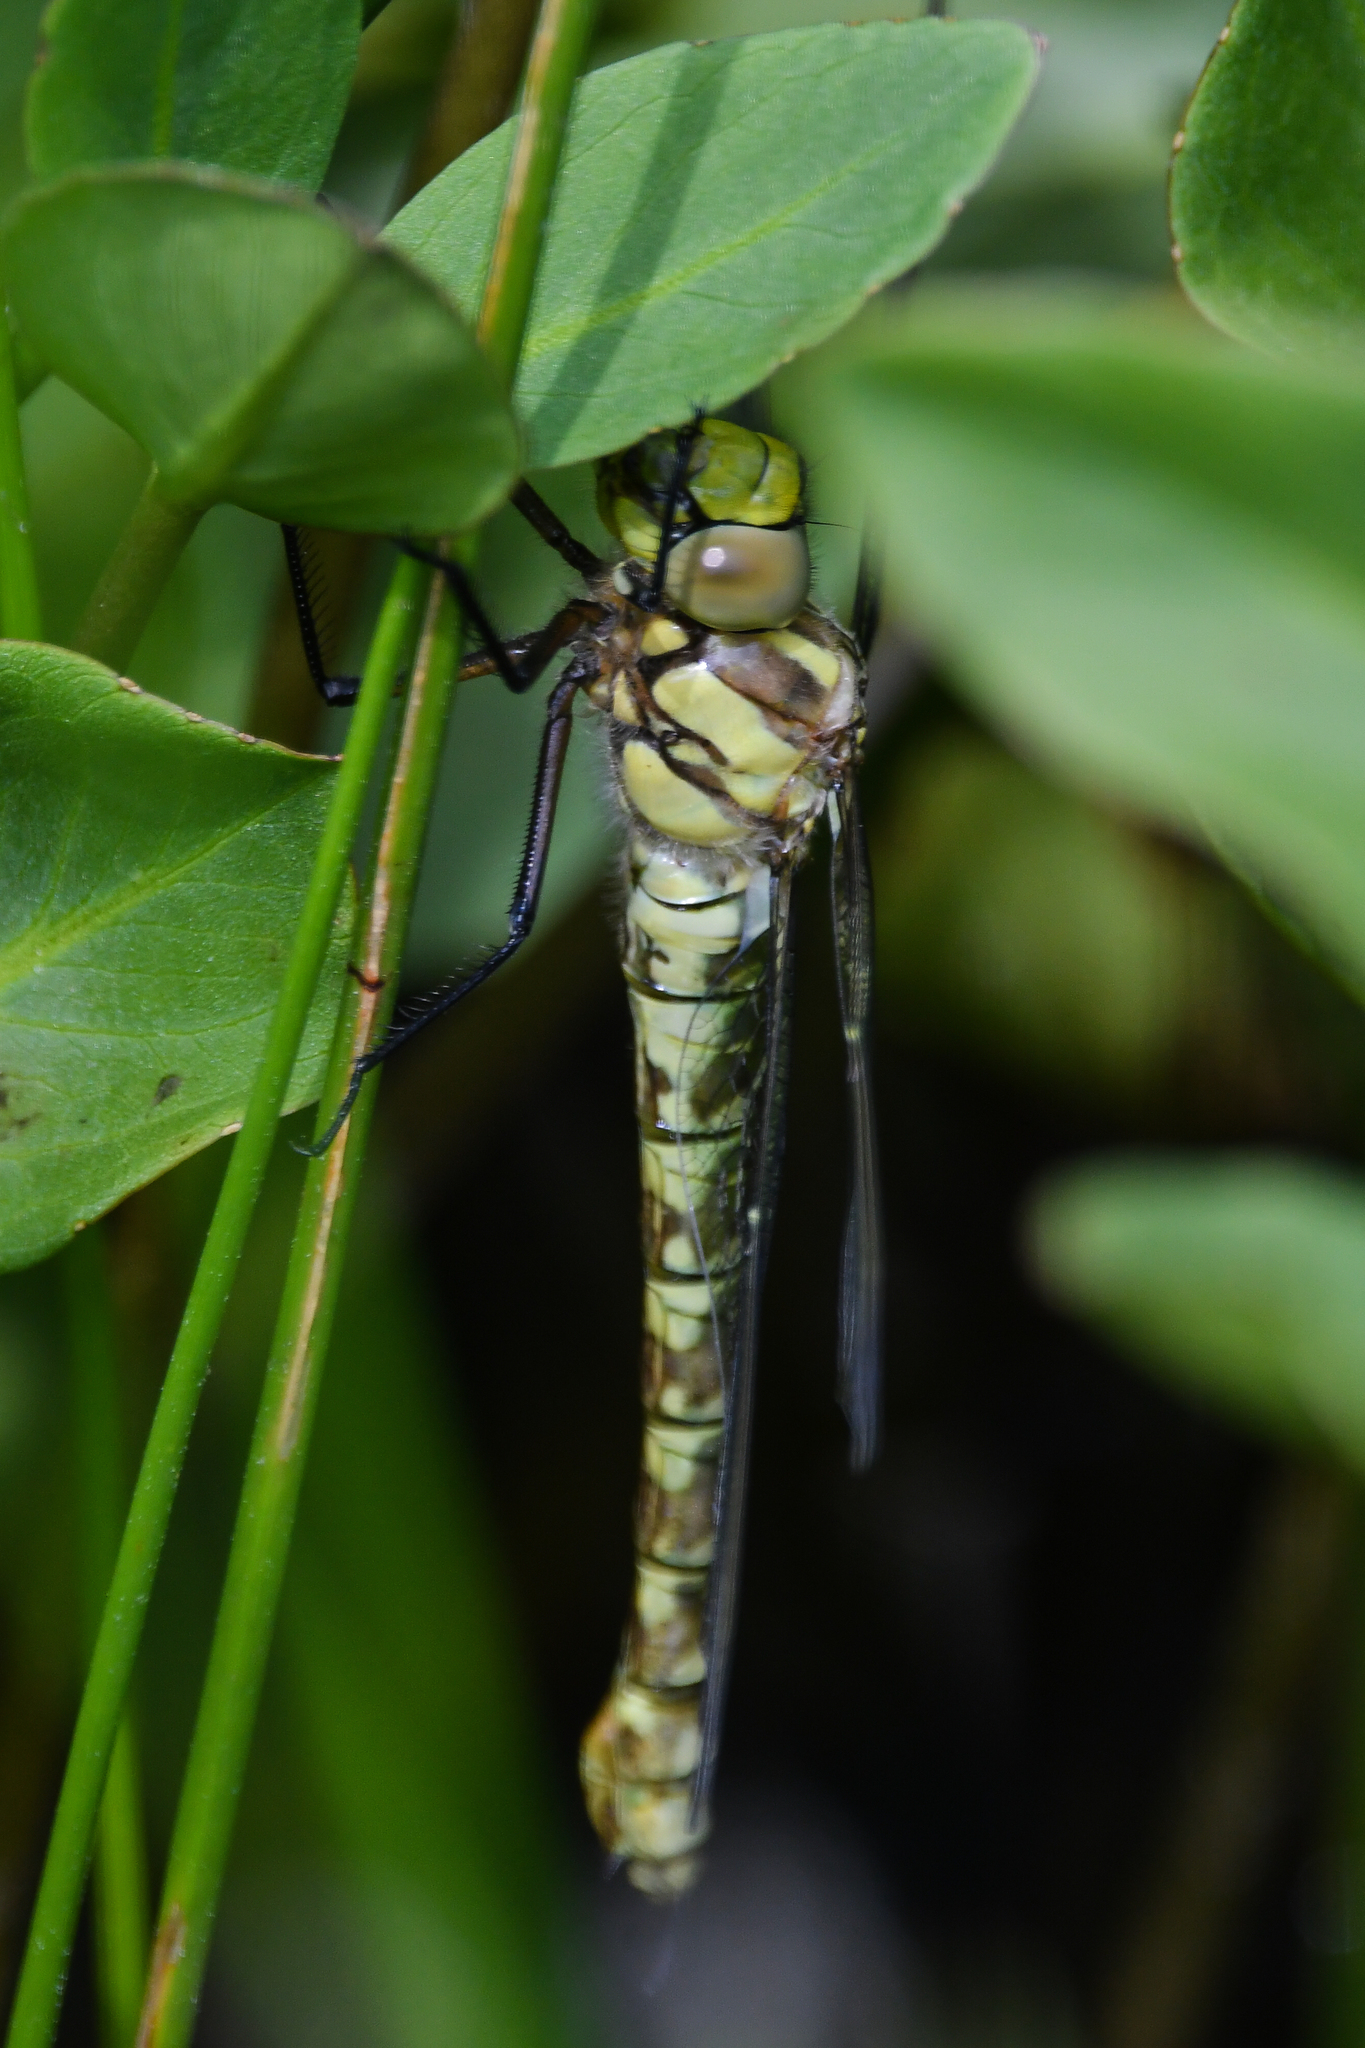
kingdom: Animalia
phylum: Arthropoda
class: Insecta
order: Odonata
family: Aeshnidae
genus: Aeshna
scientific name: Aeshna cyanea
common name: Southern hawker
